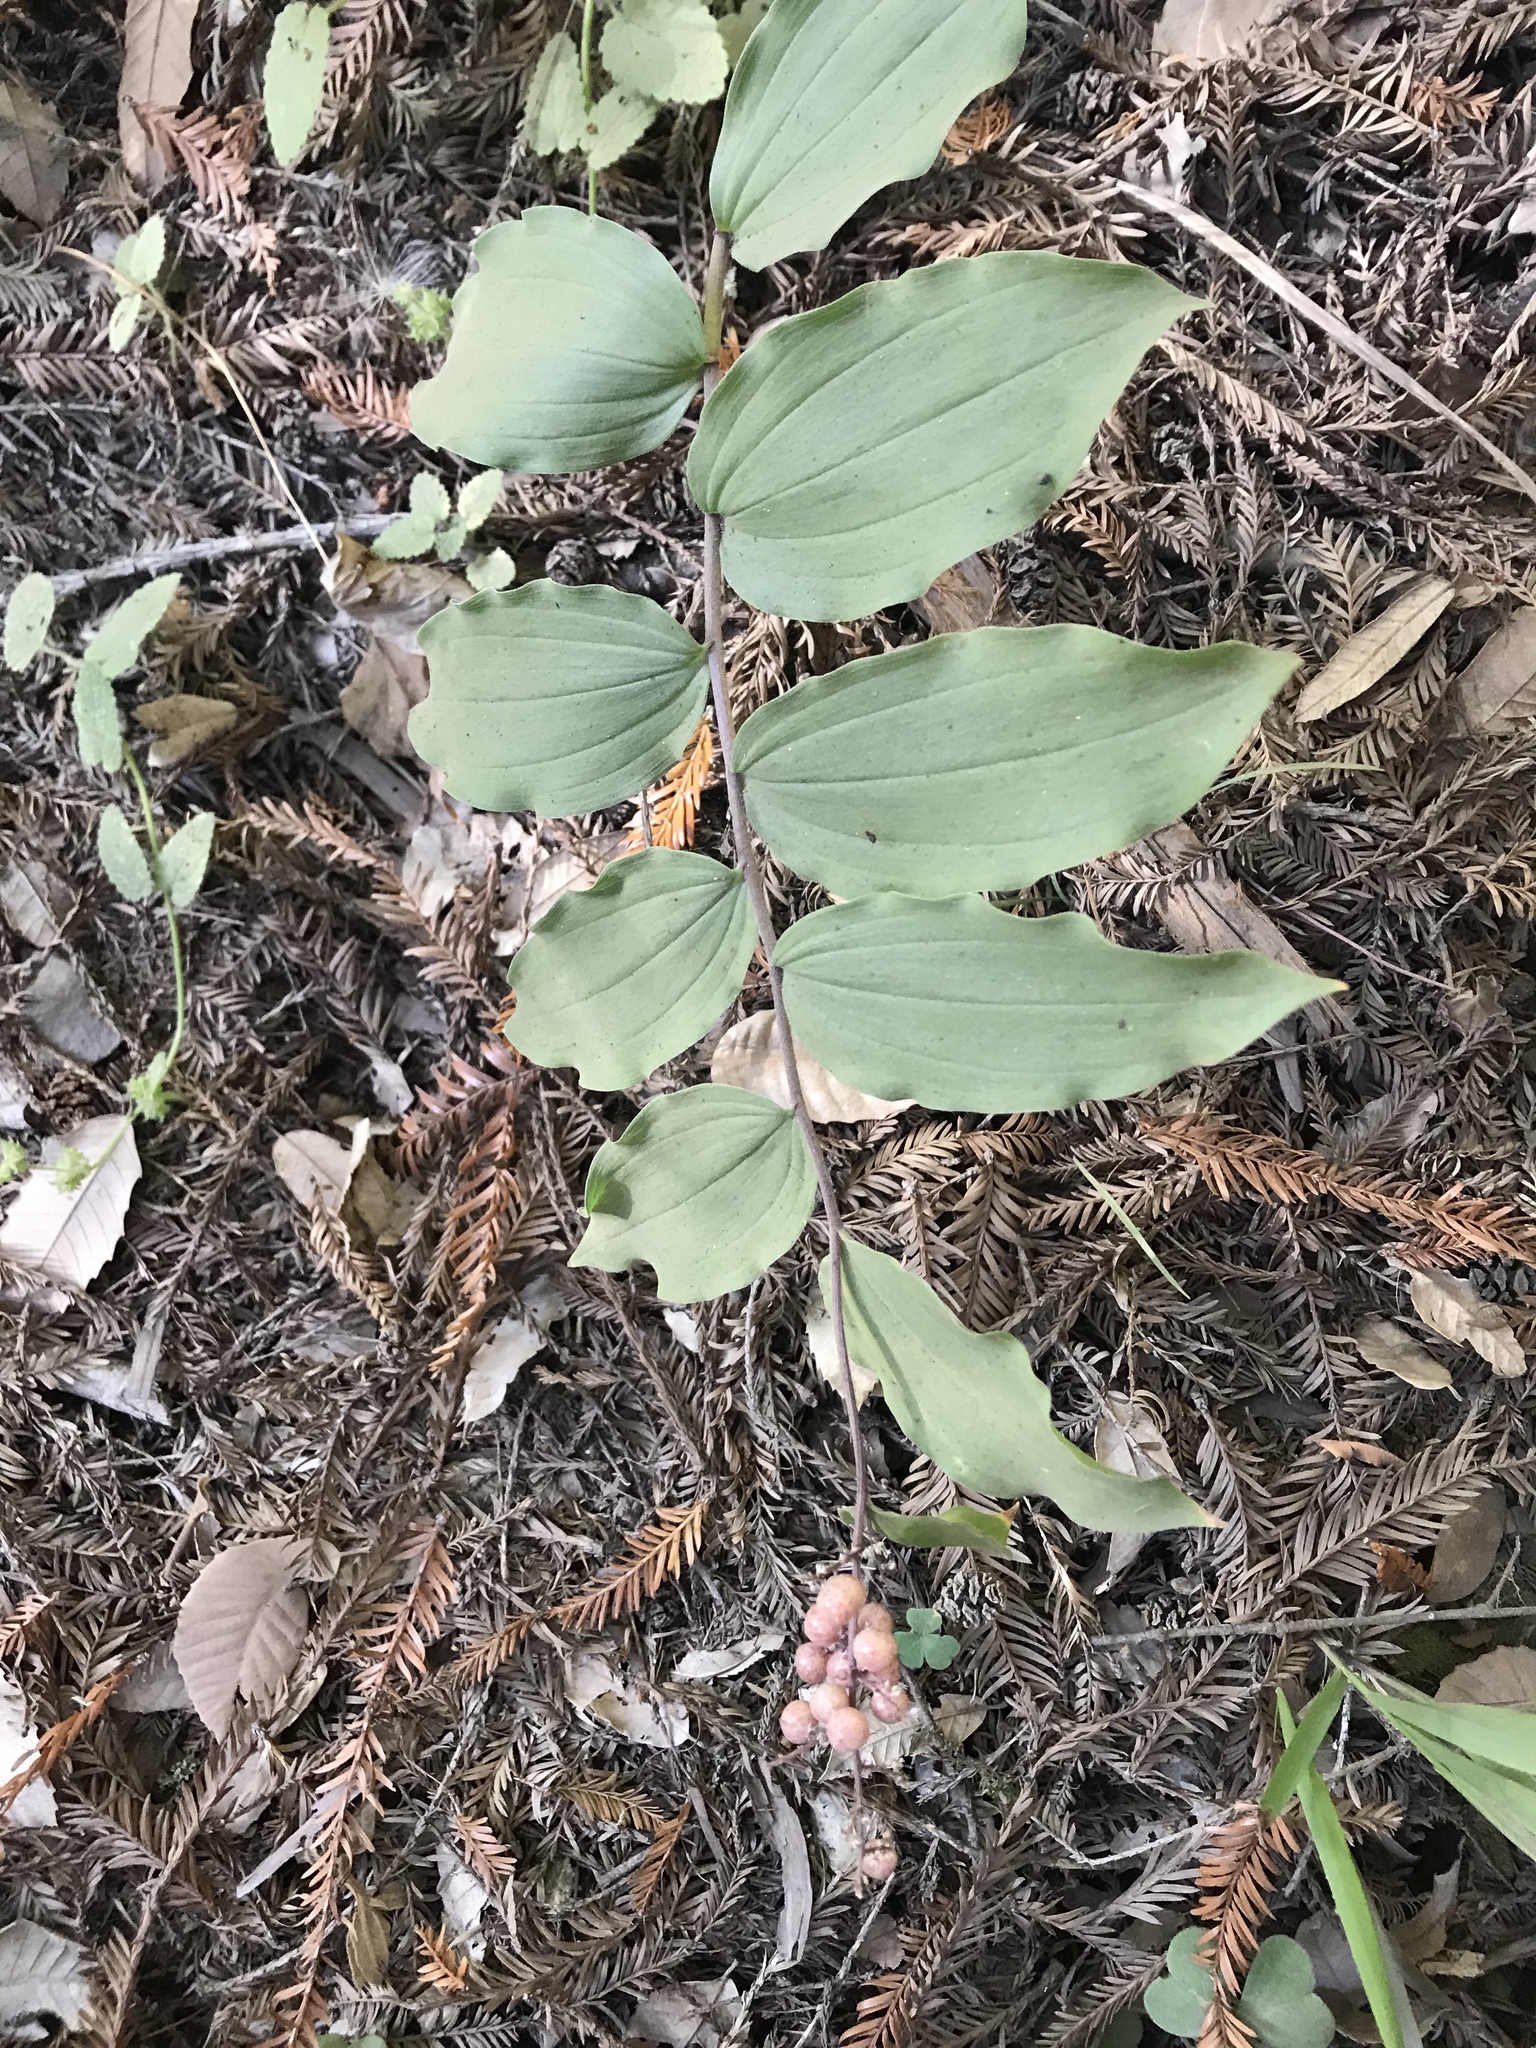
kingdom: Plantae
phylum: Tracheophyta
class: Liliopsida
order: Asparagales
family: Asparagaceae
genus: Maianthemum
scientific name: Maianthemum racemosum
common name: False spikenard
